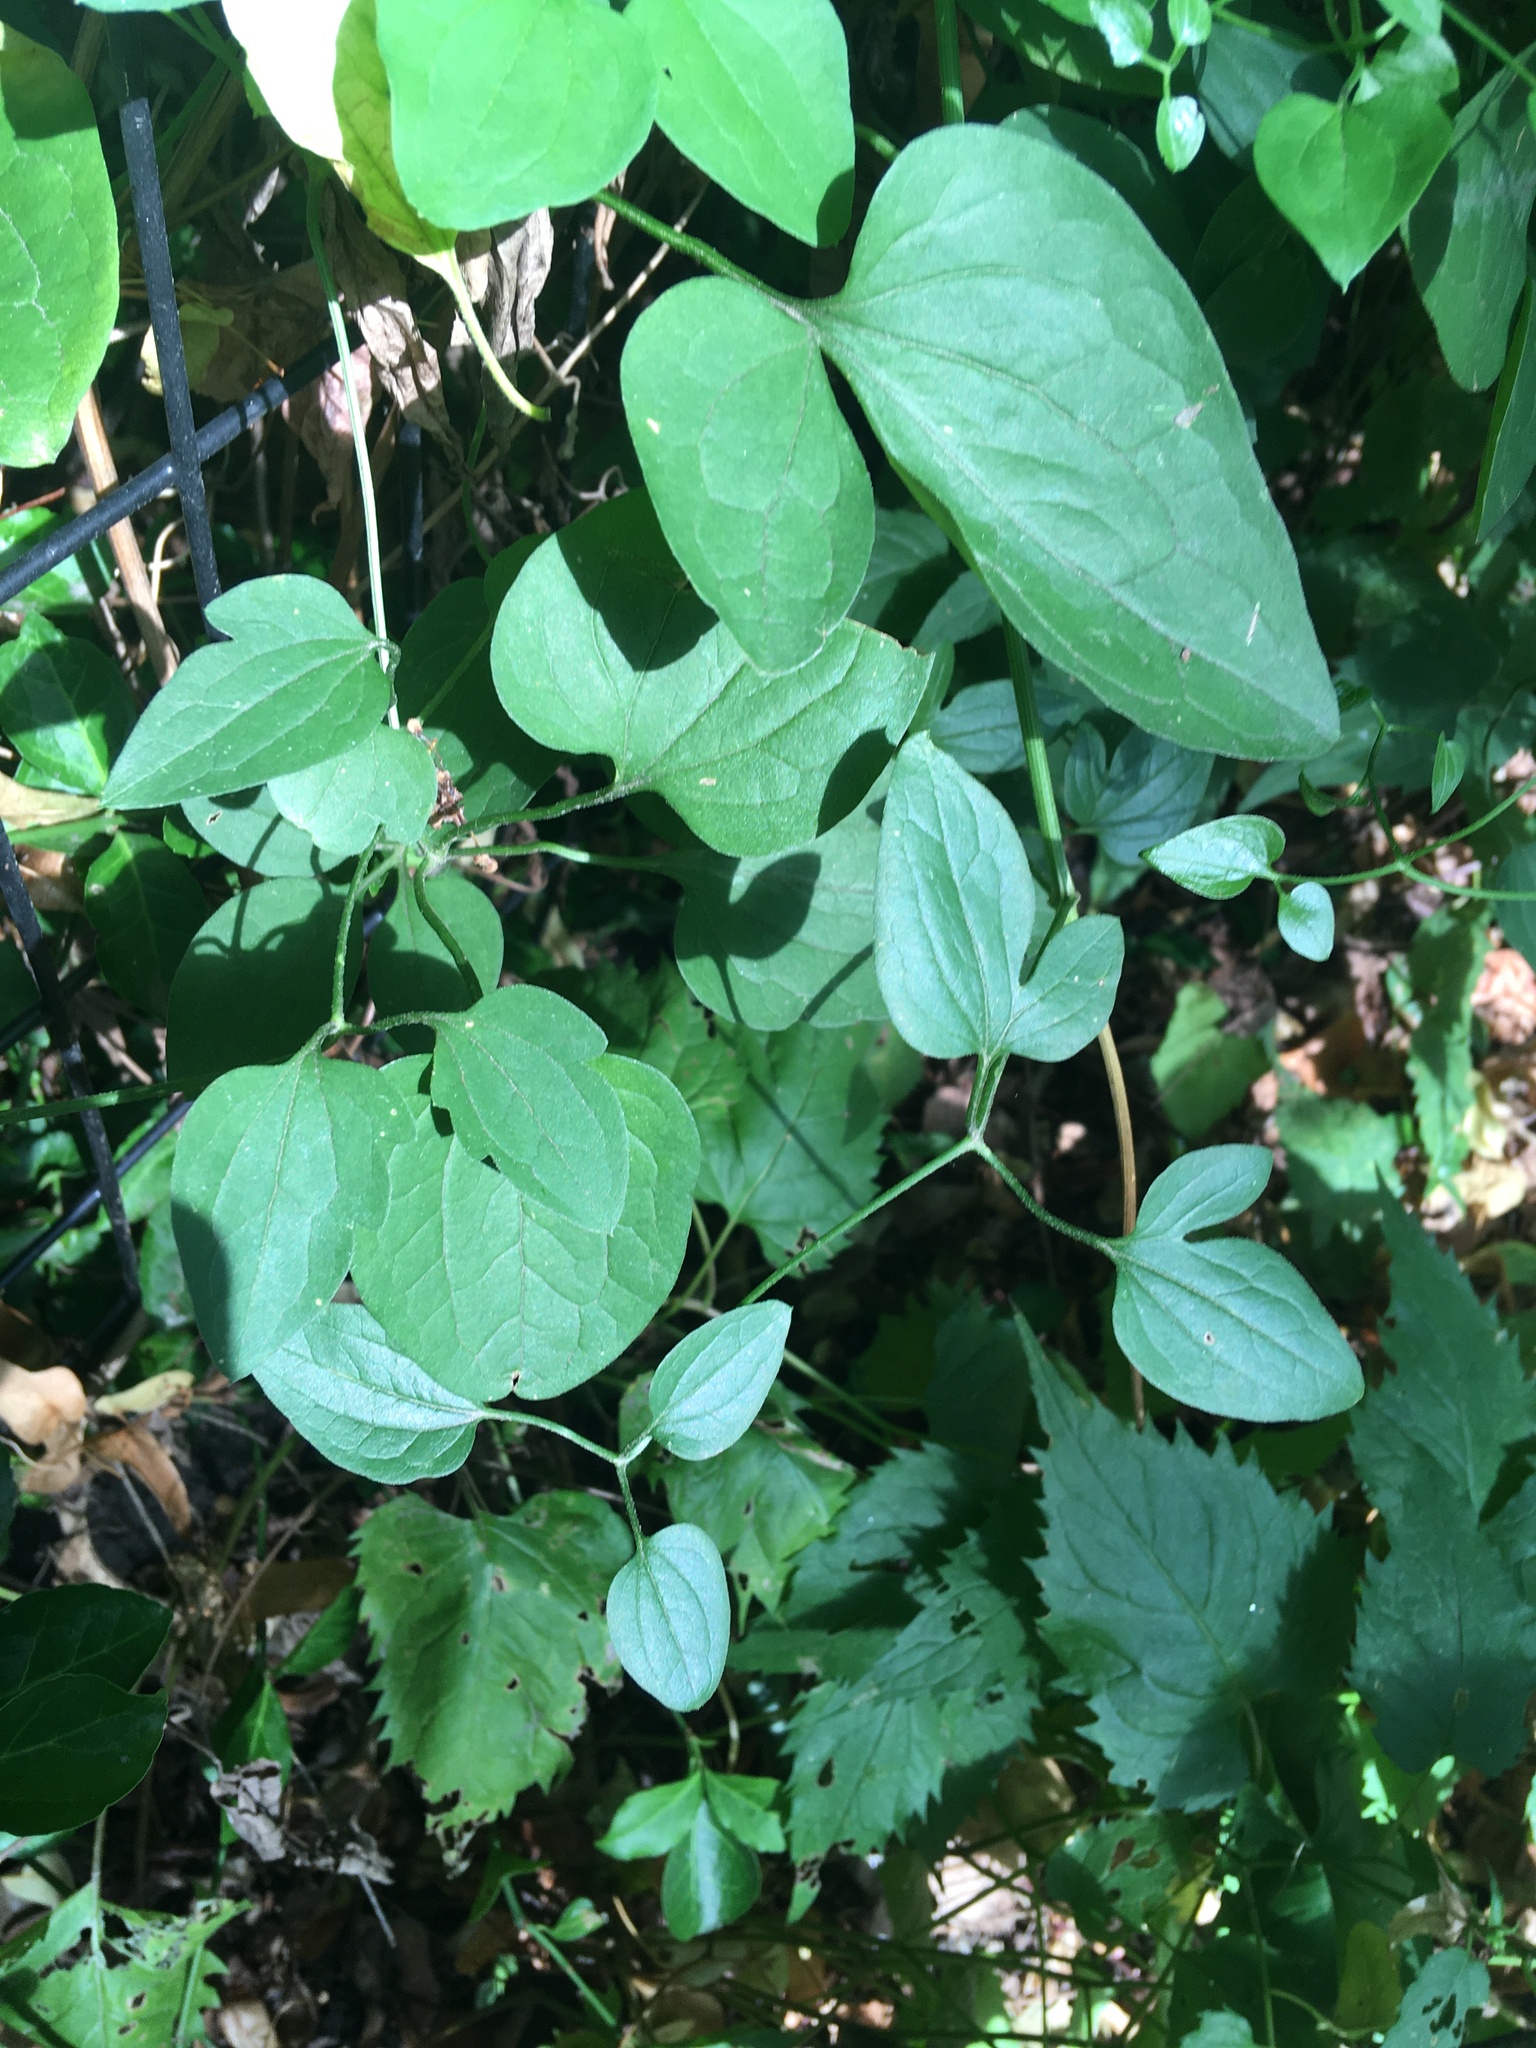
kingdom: Plantae
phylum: Tracheophyta
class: Magnoliopsida
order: Ranunculales
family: Ranunculaceae
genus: Clematis
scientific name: Clematis terniflora
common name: Sweet autumn clematis
